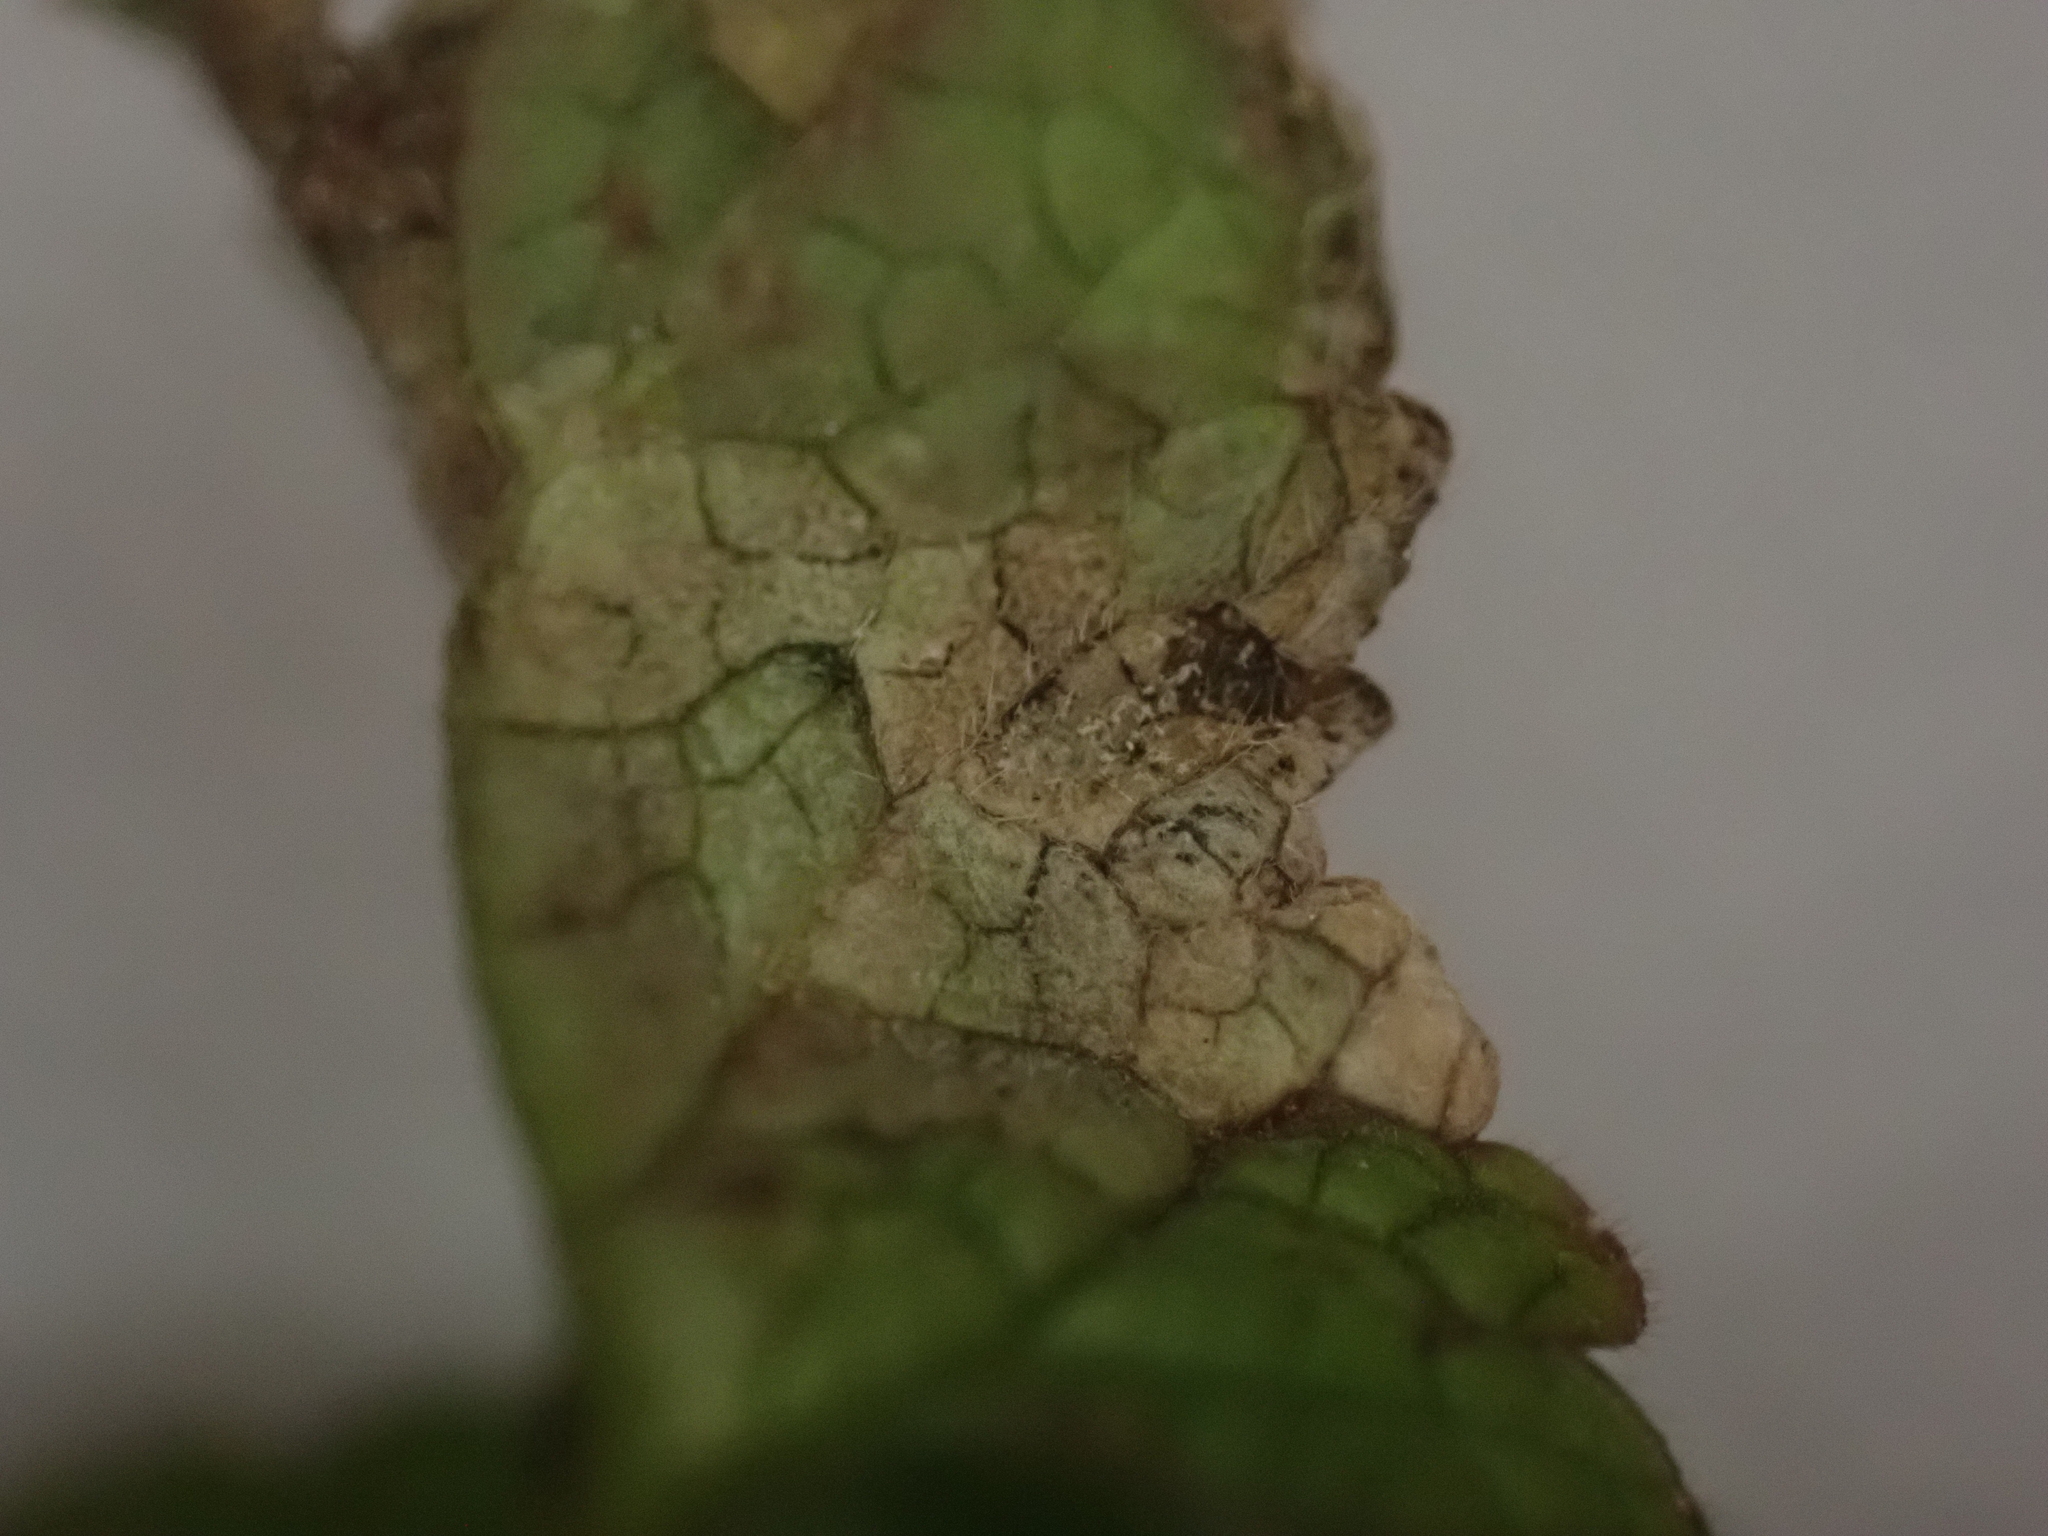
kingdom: Chromista
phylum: Oomycota
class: Peronosporea
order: Peronosporales
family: Peronosporaceae
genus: Peronospora
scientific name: Peronospora lamii
